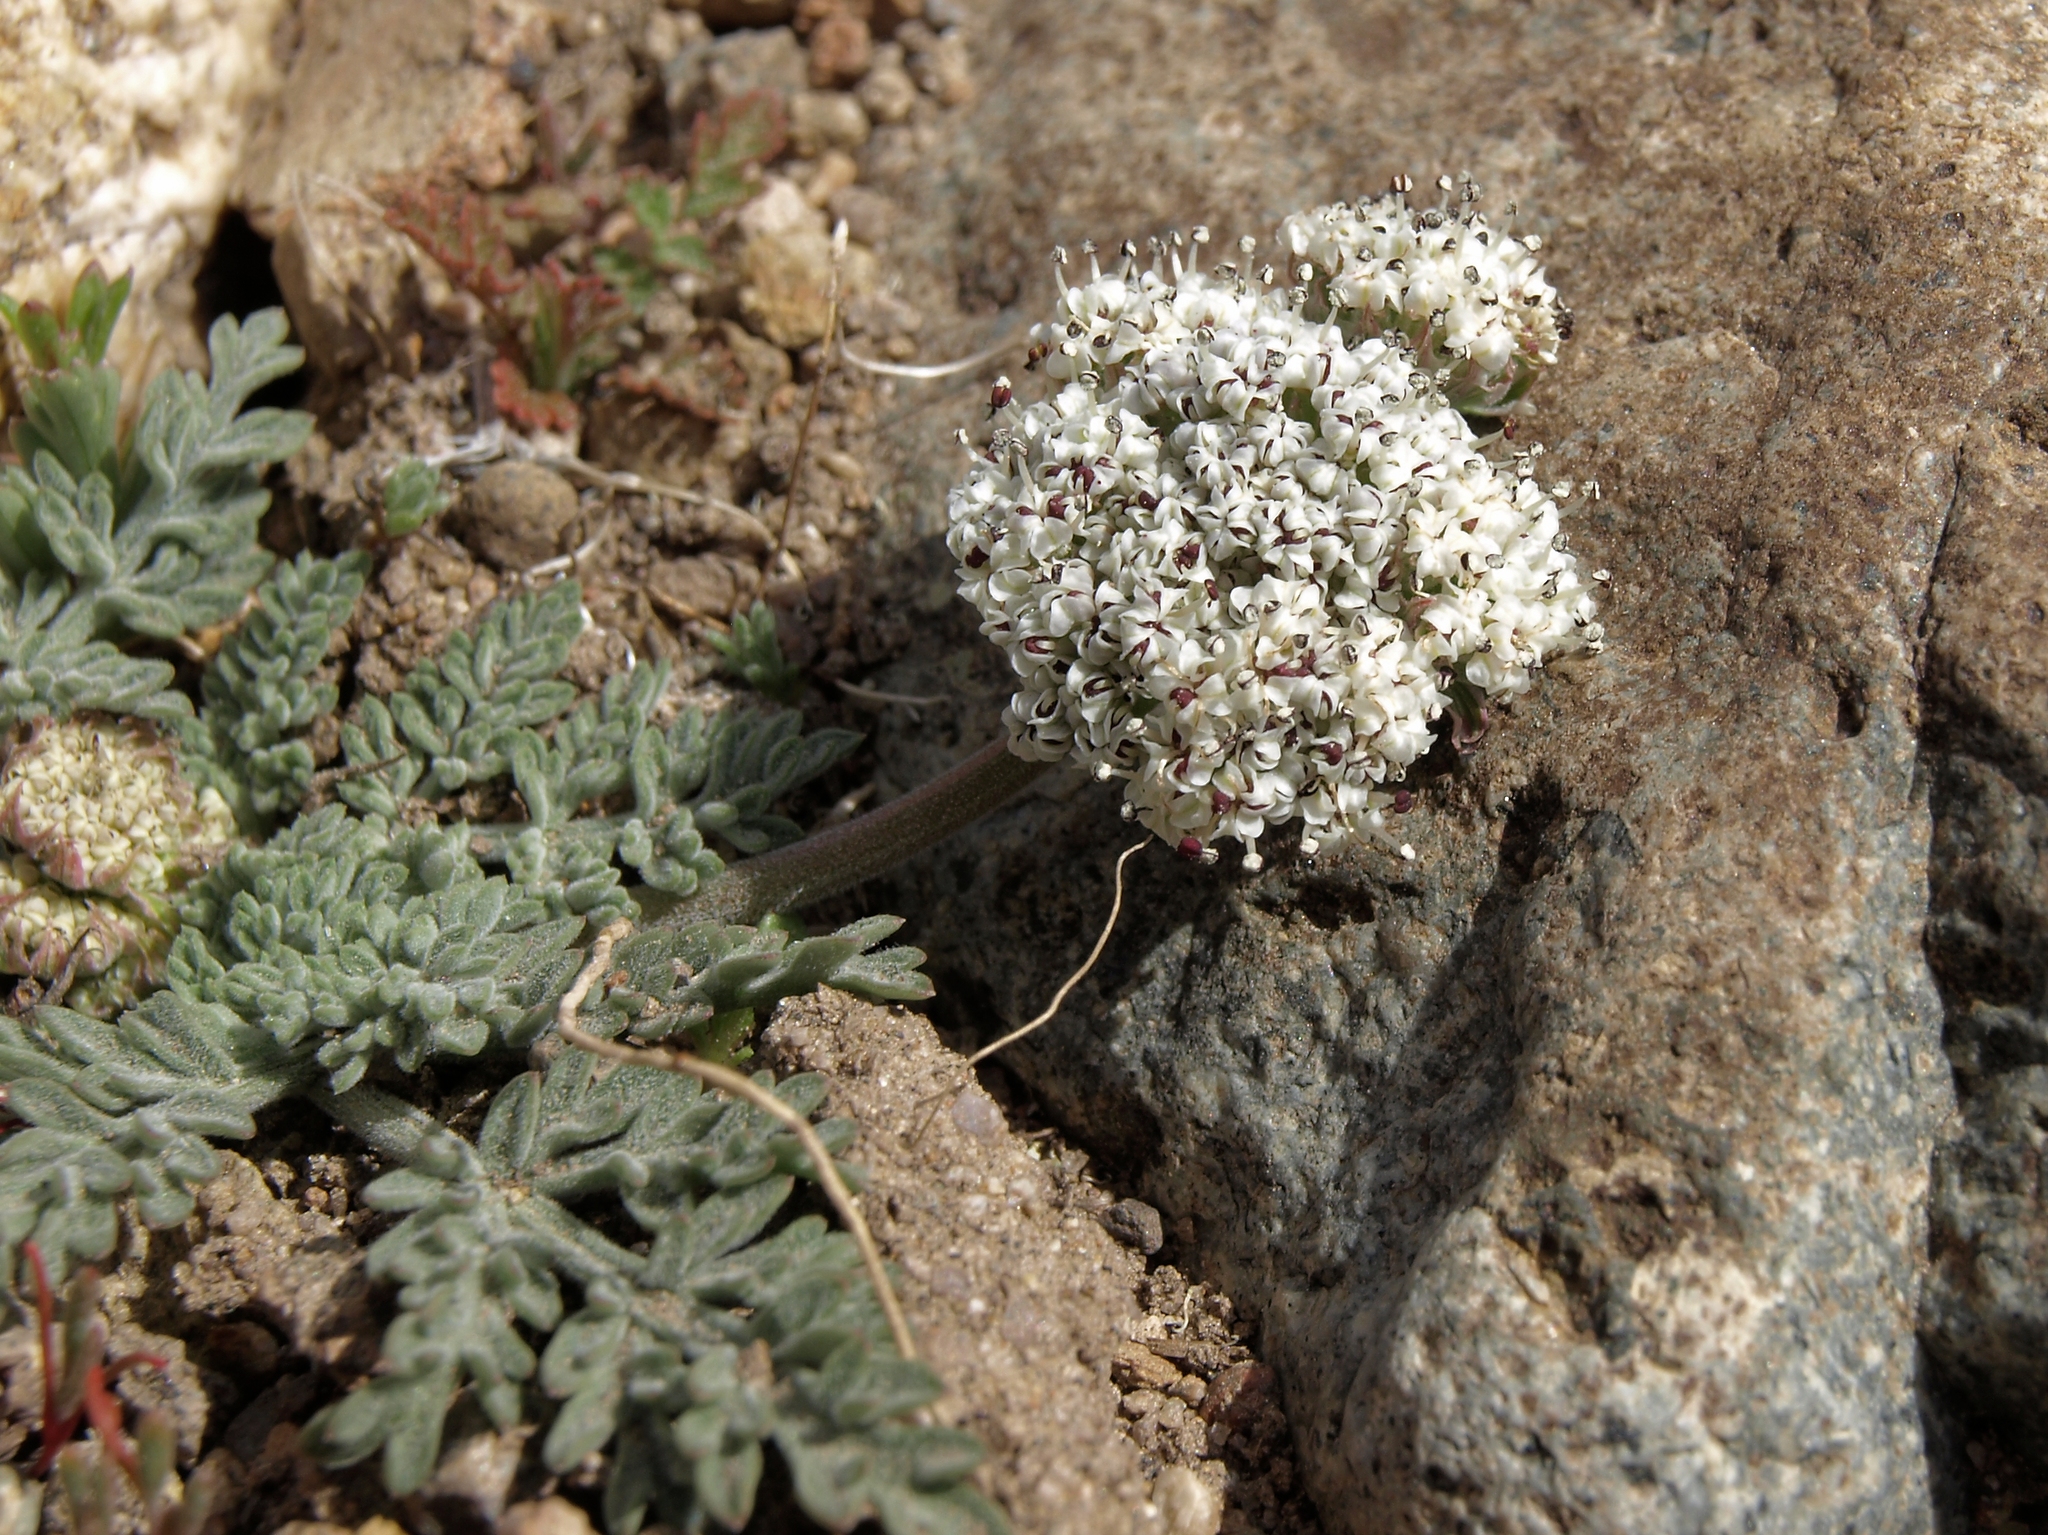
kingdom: Plantae
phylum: Tracheophyta
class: Magnoliopsida
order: Apiales
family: Apiaceae
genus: Lomatium
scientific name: Lomatium nevadense
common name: Nevada lomatium
